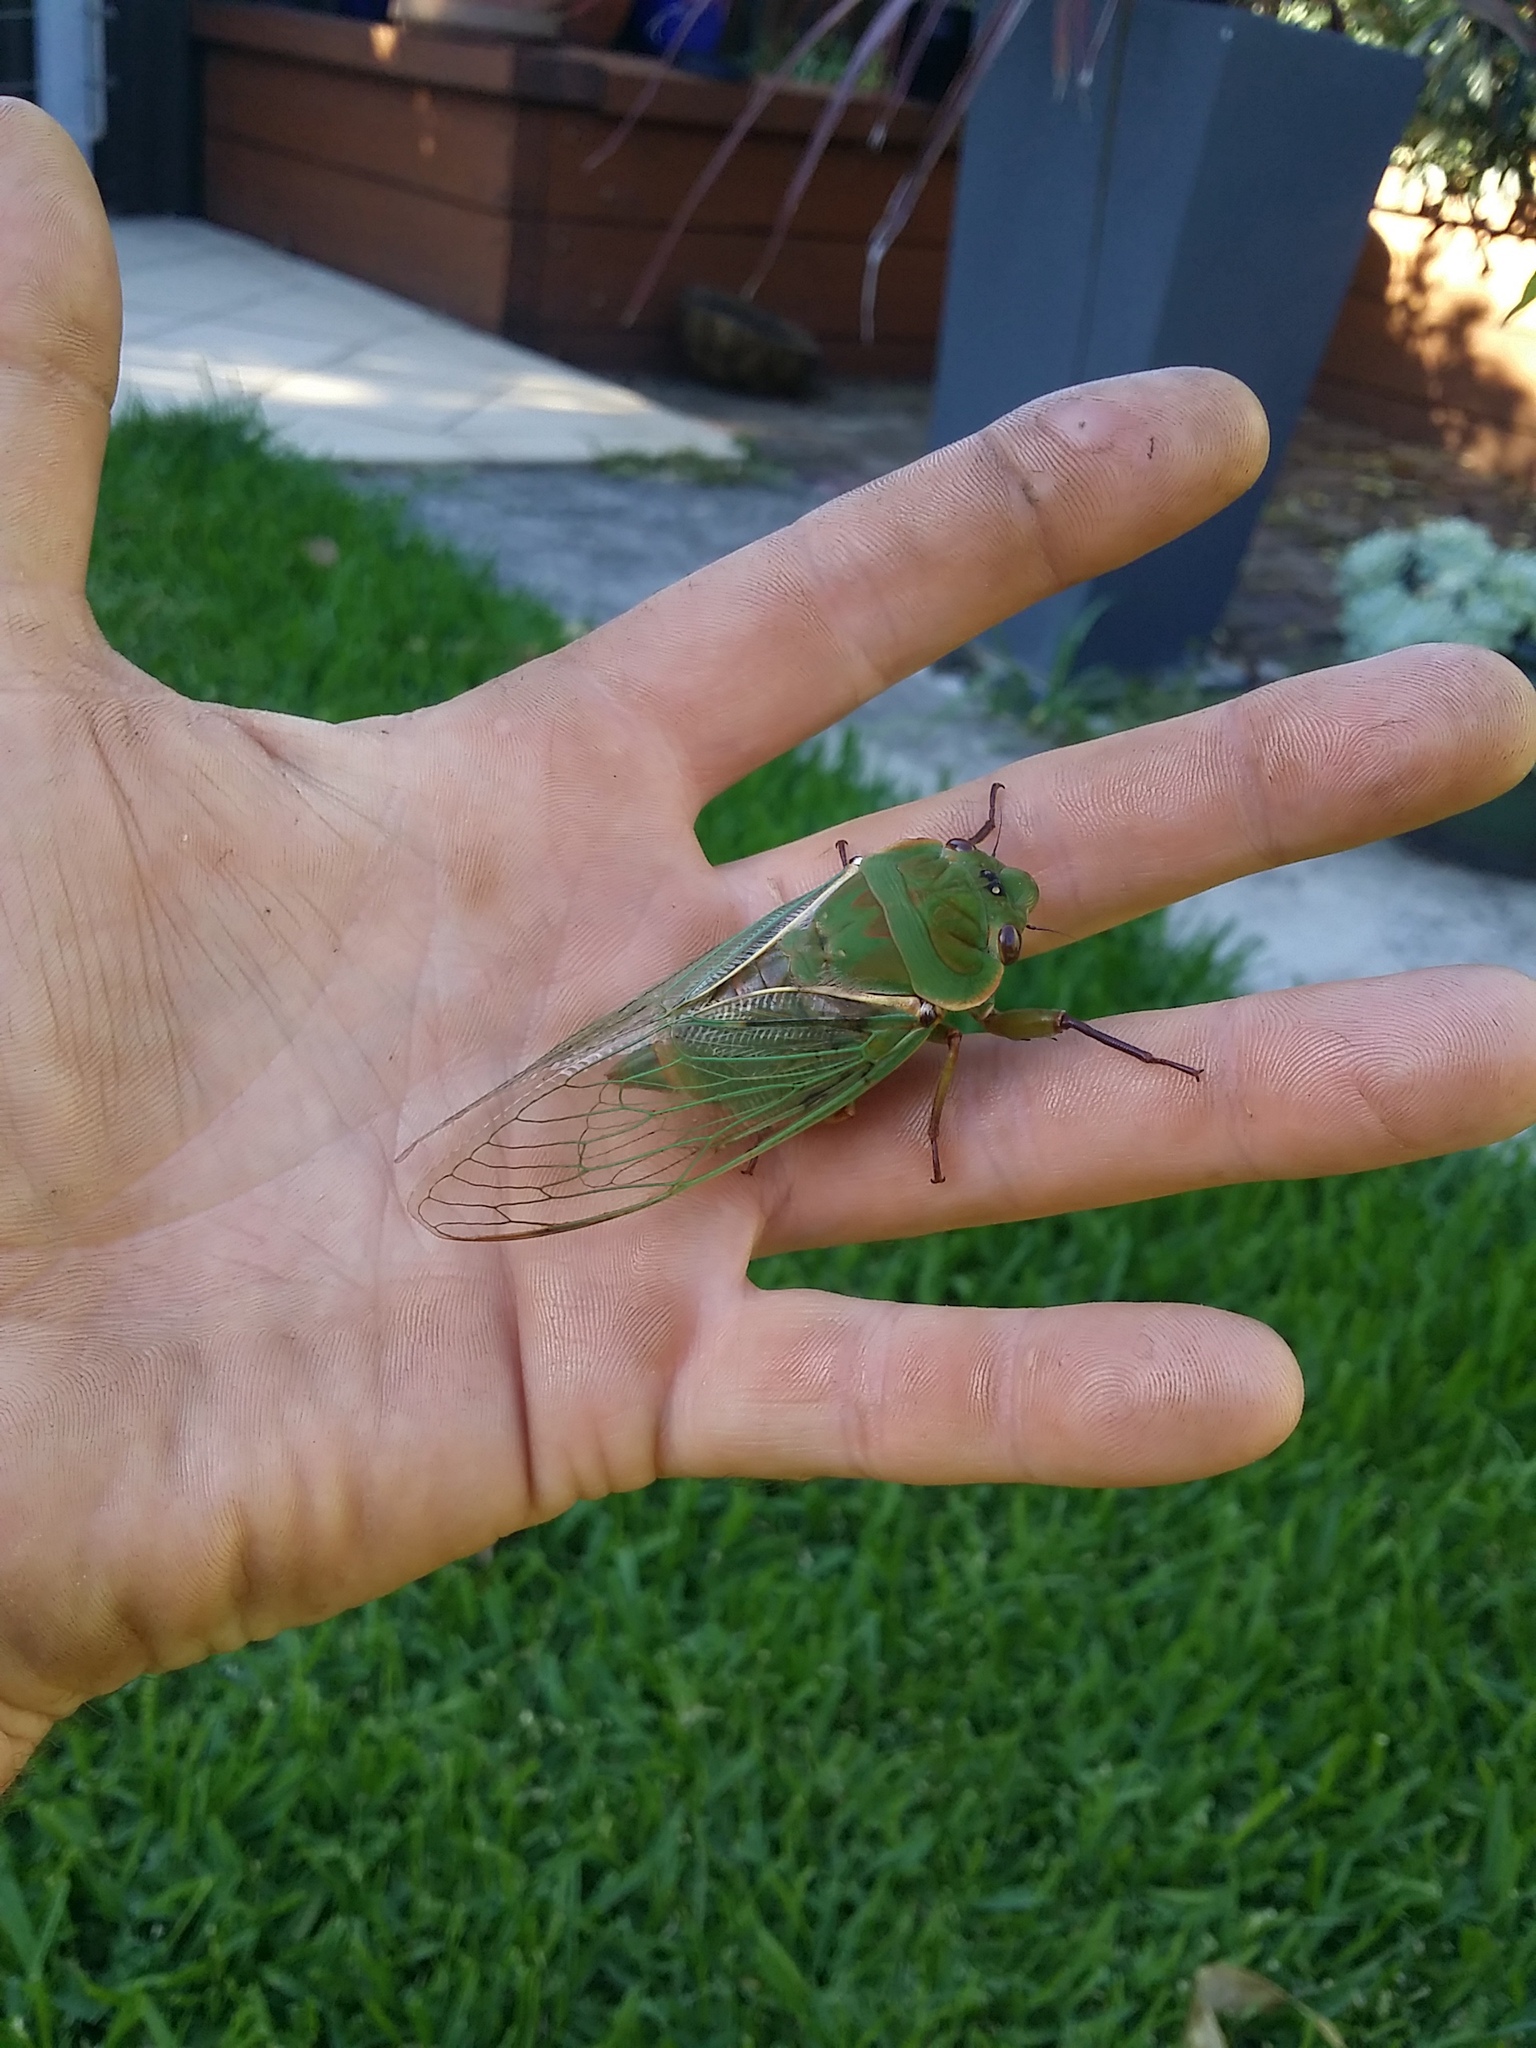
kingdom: Animalia
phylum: Arthropoda
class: Insecta
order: Hemiptera
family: Cicadidae
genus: Cyclochila
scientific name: Cyclochila australasiae
